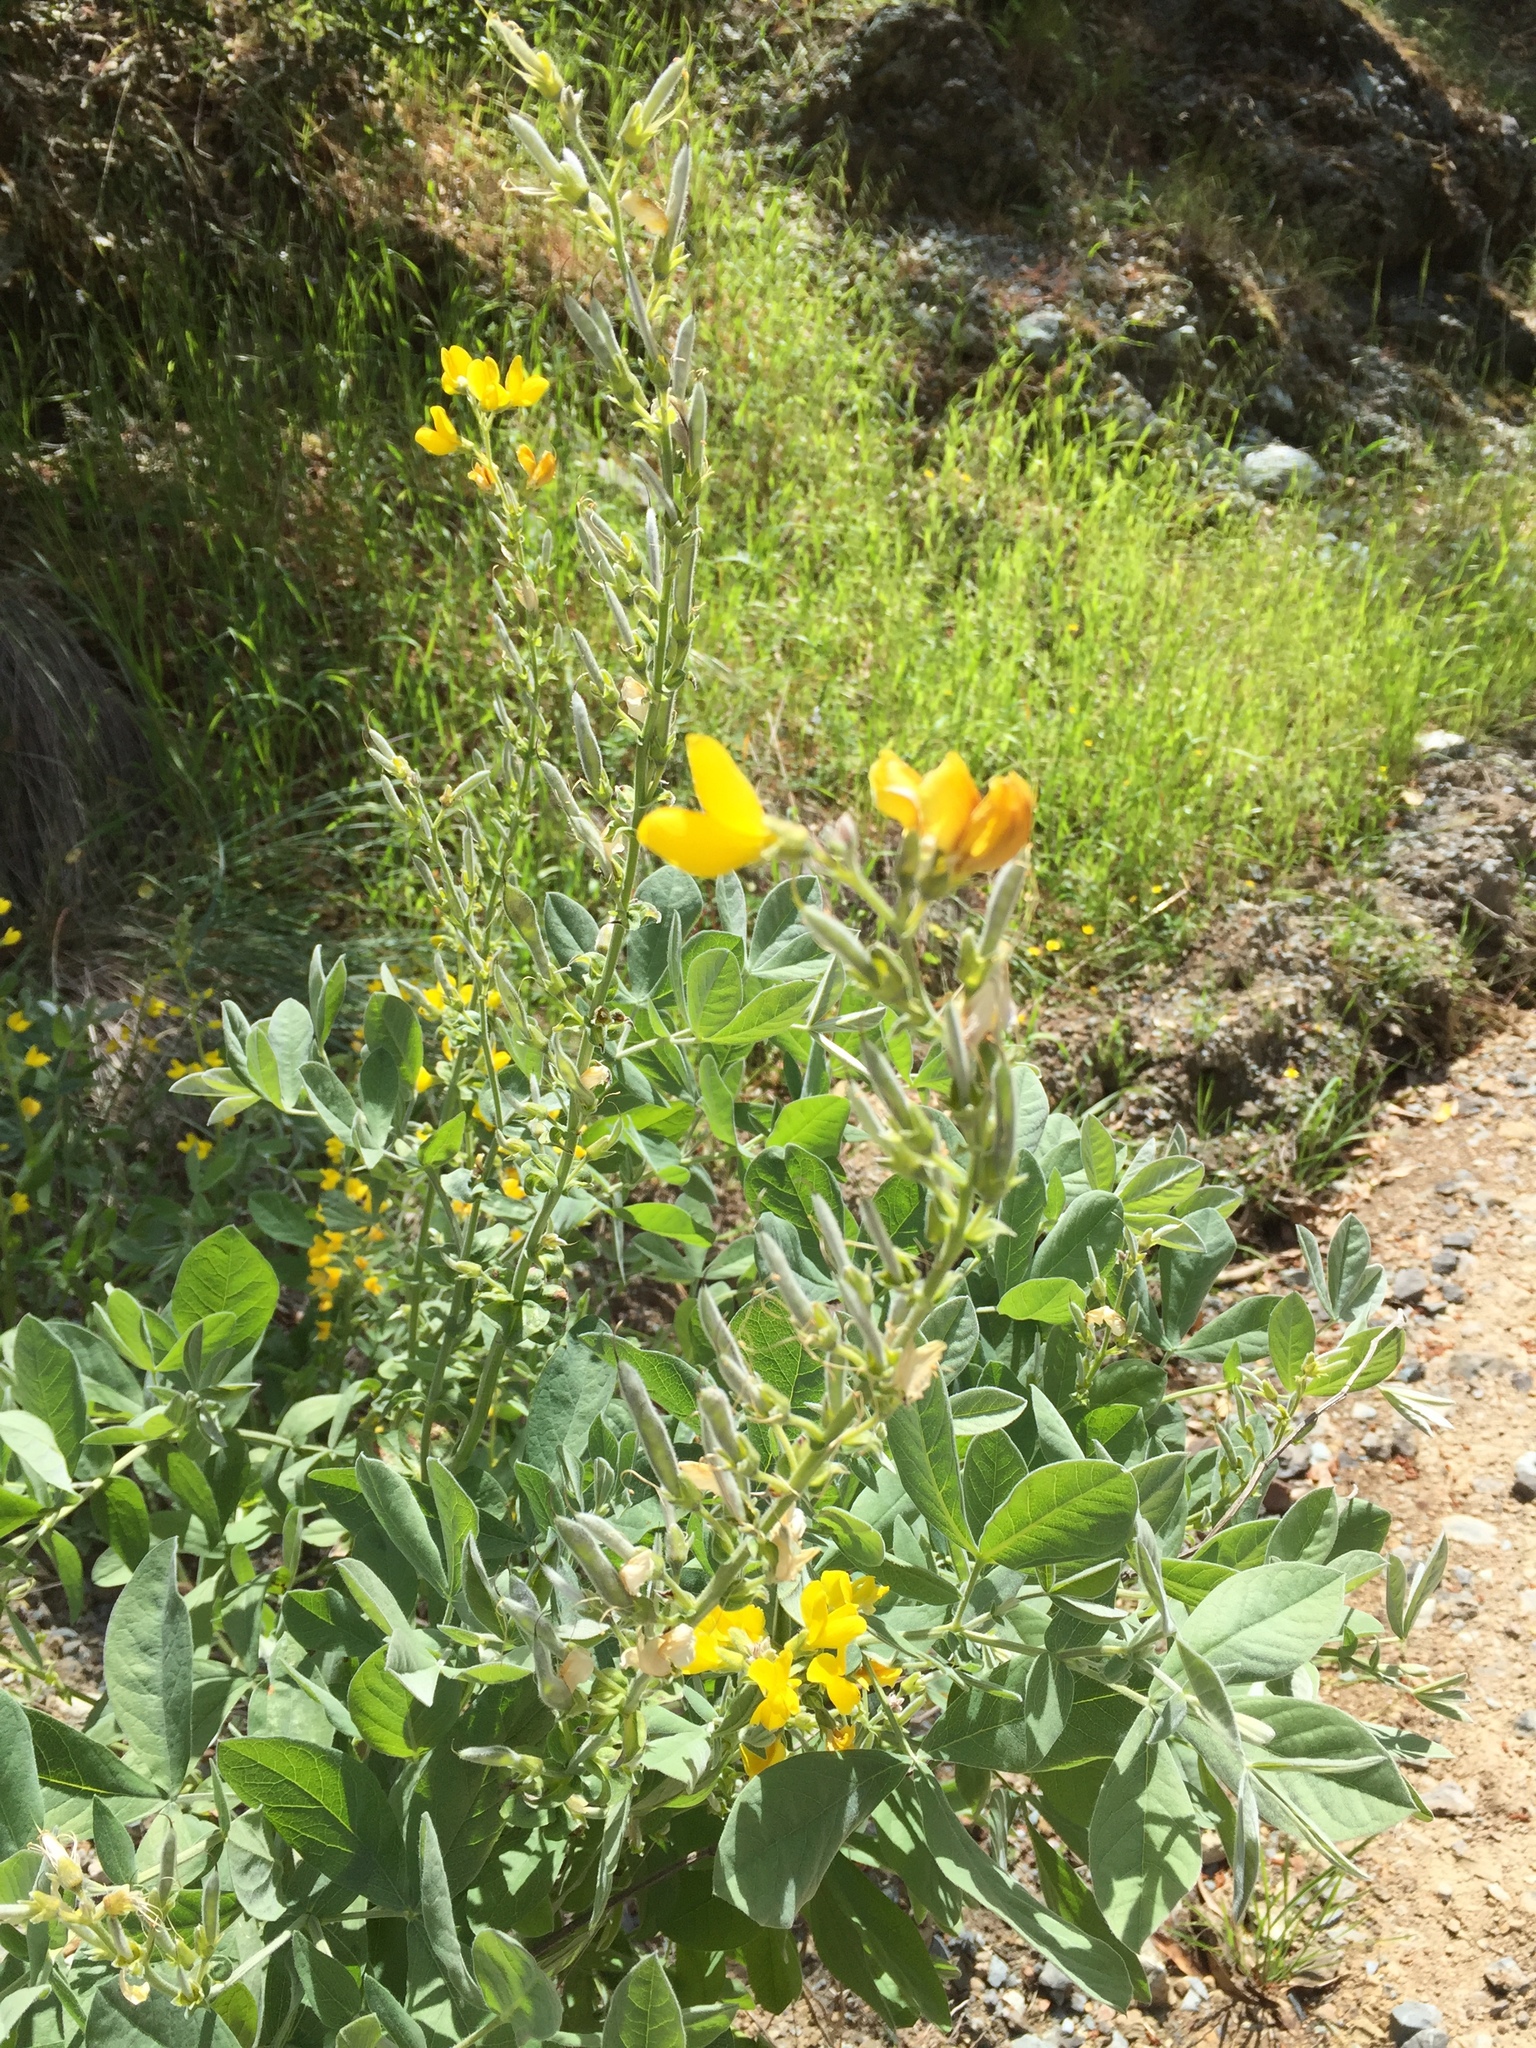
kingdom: Plantae
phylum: Tracheophyta
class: Magnoliopsida
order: Fabales
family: Fabaceae
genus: Thermopsis
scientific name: Thermopsis californica
